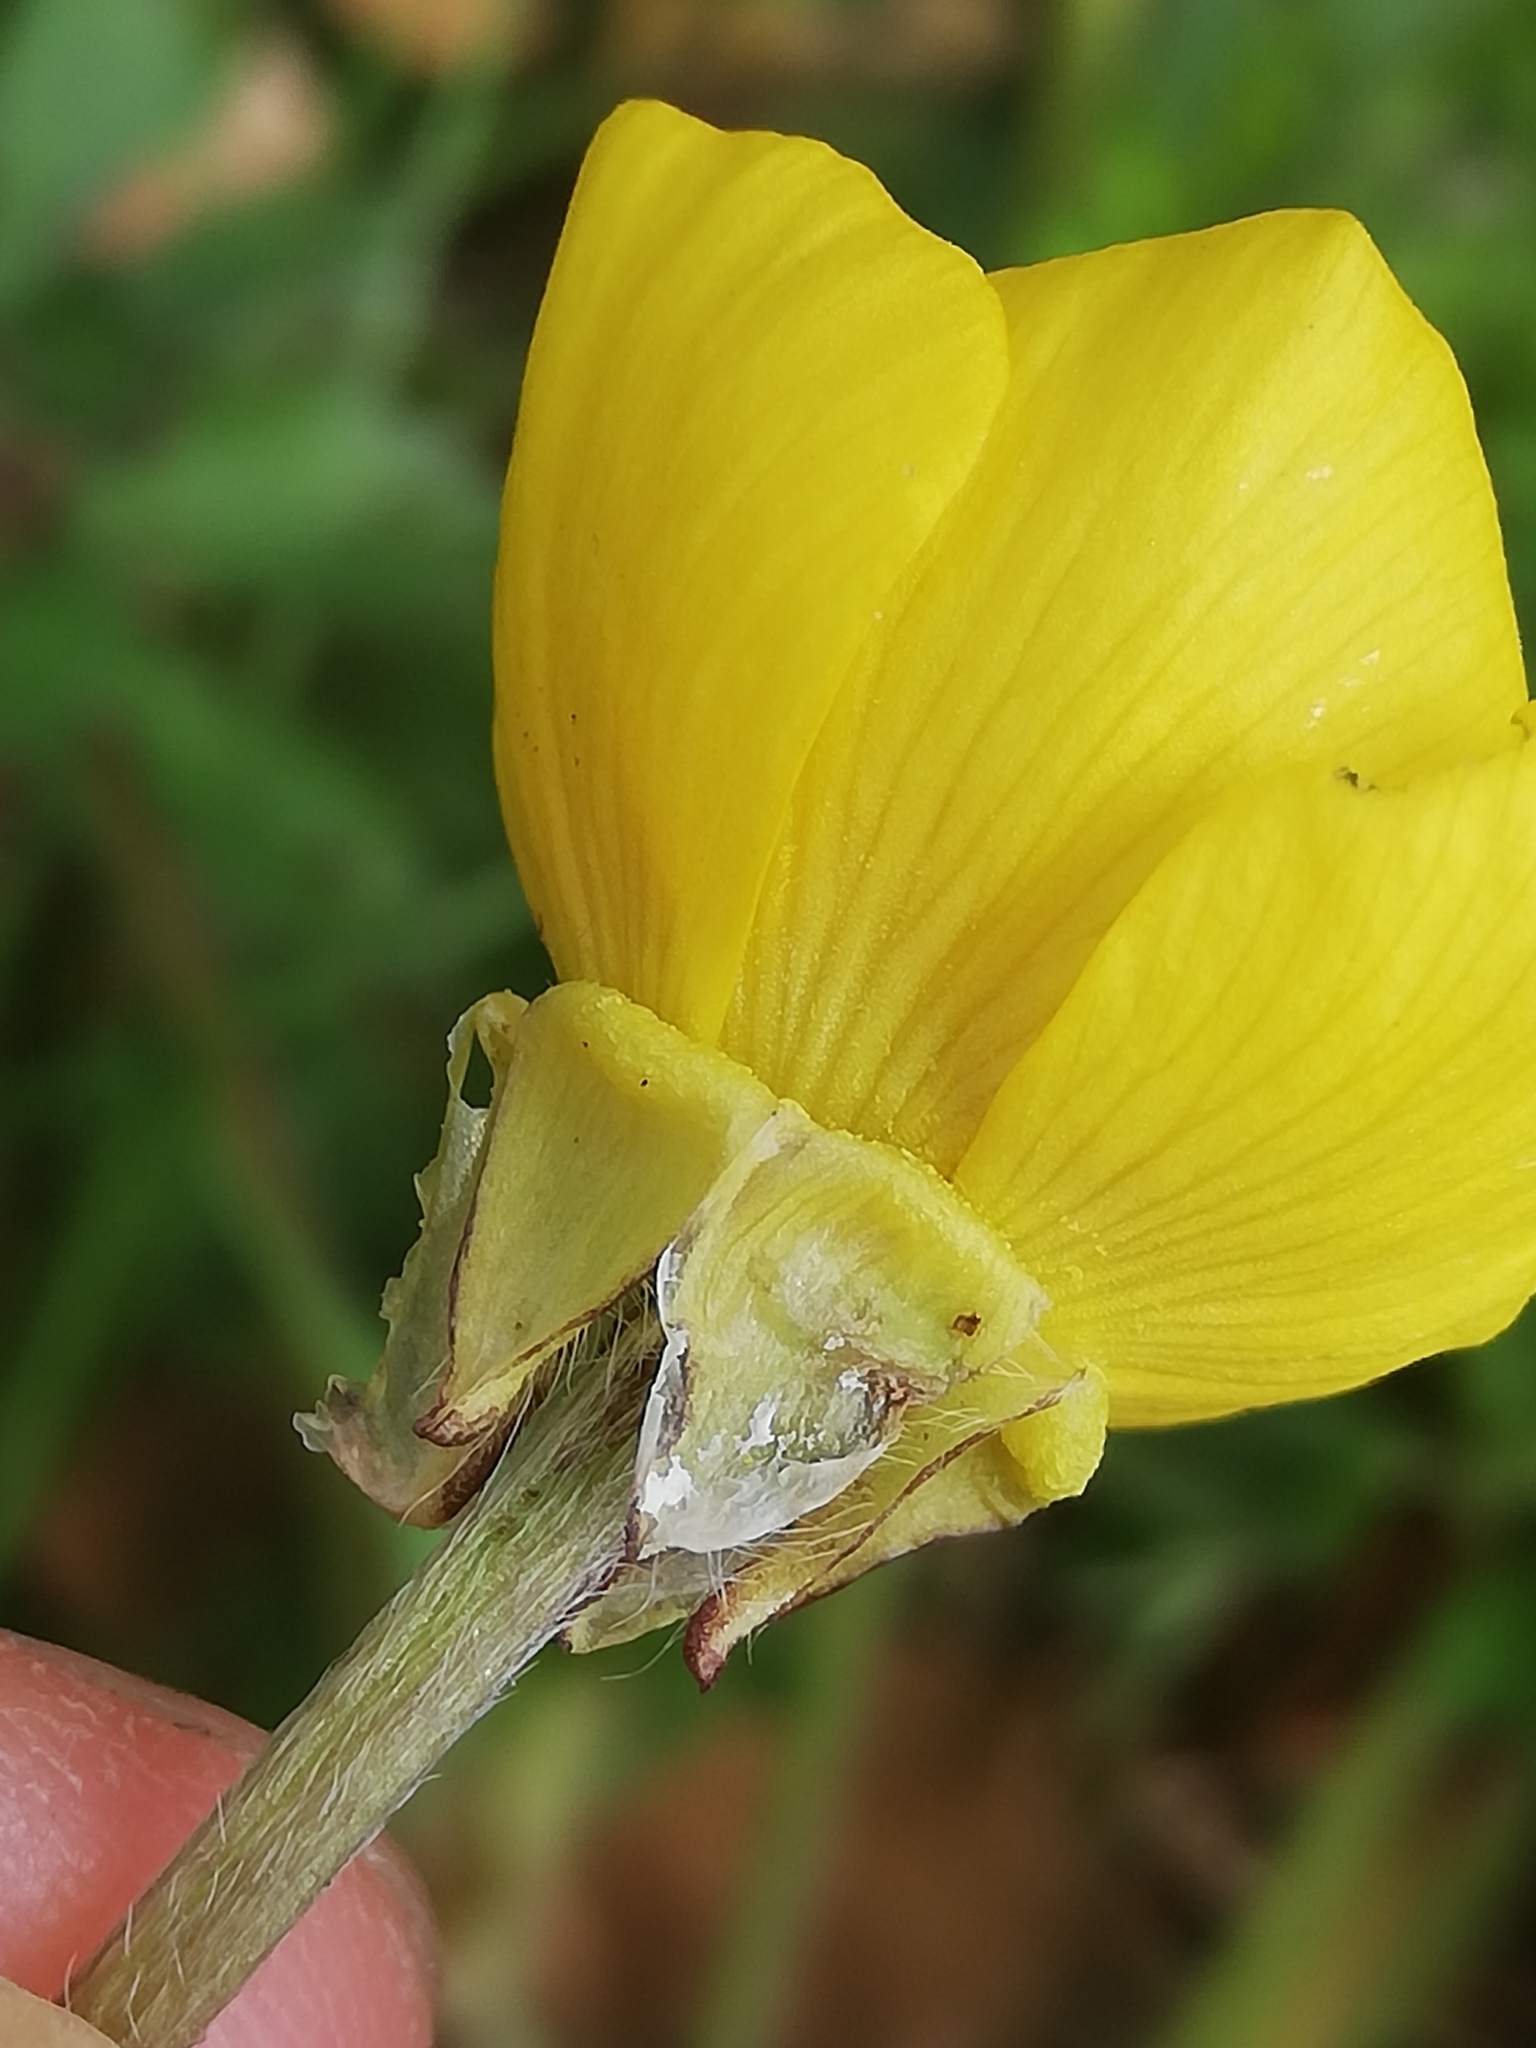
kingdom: Plantae
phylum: Tracheophyta
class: Magnoliopsida
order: Ranunculales
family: Ranunculaceae
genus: Ranunculus
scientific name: Ranunculus bulbosus
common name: Bulbous buttercup
